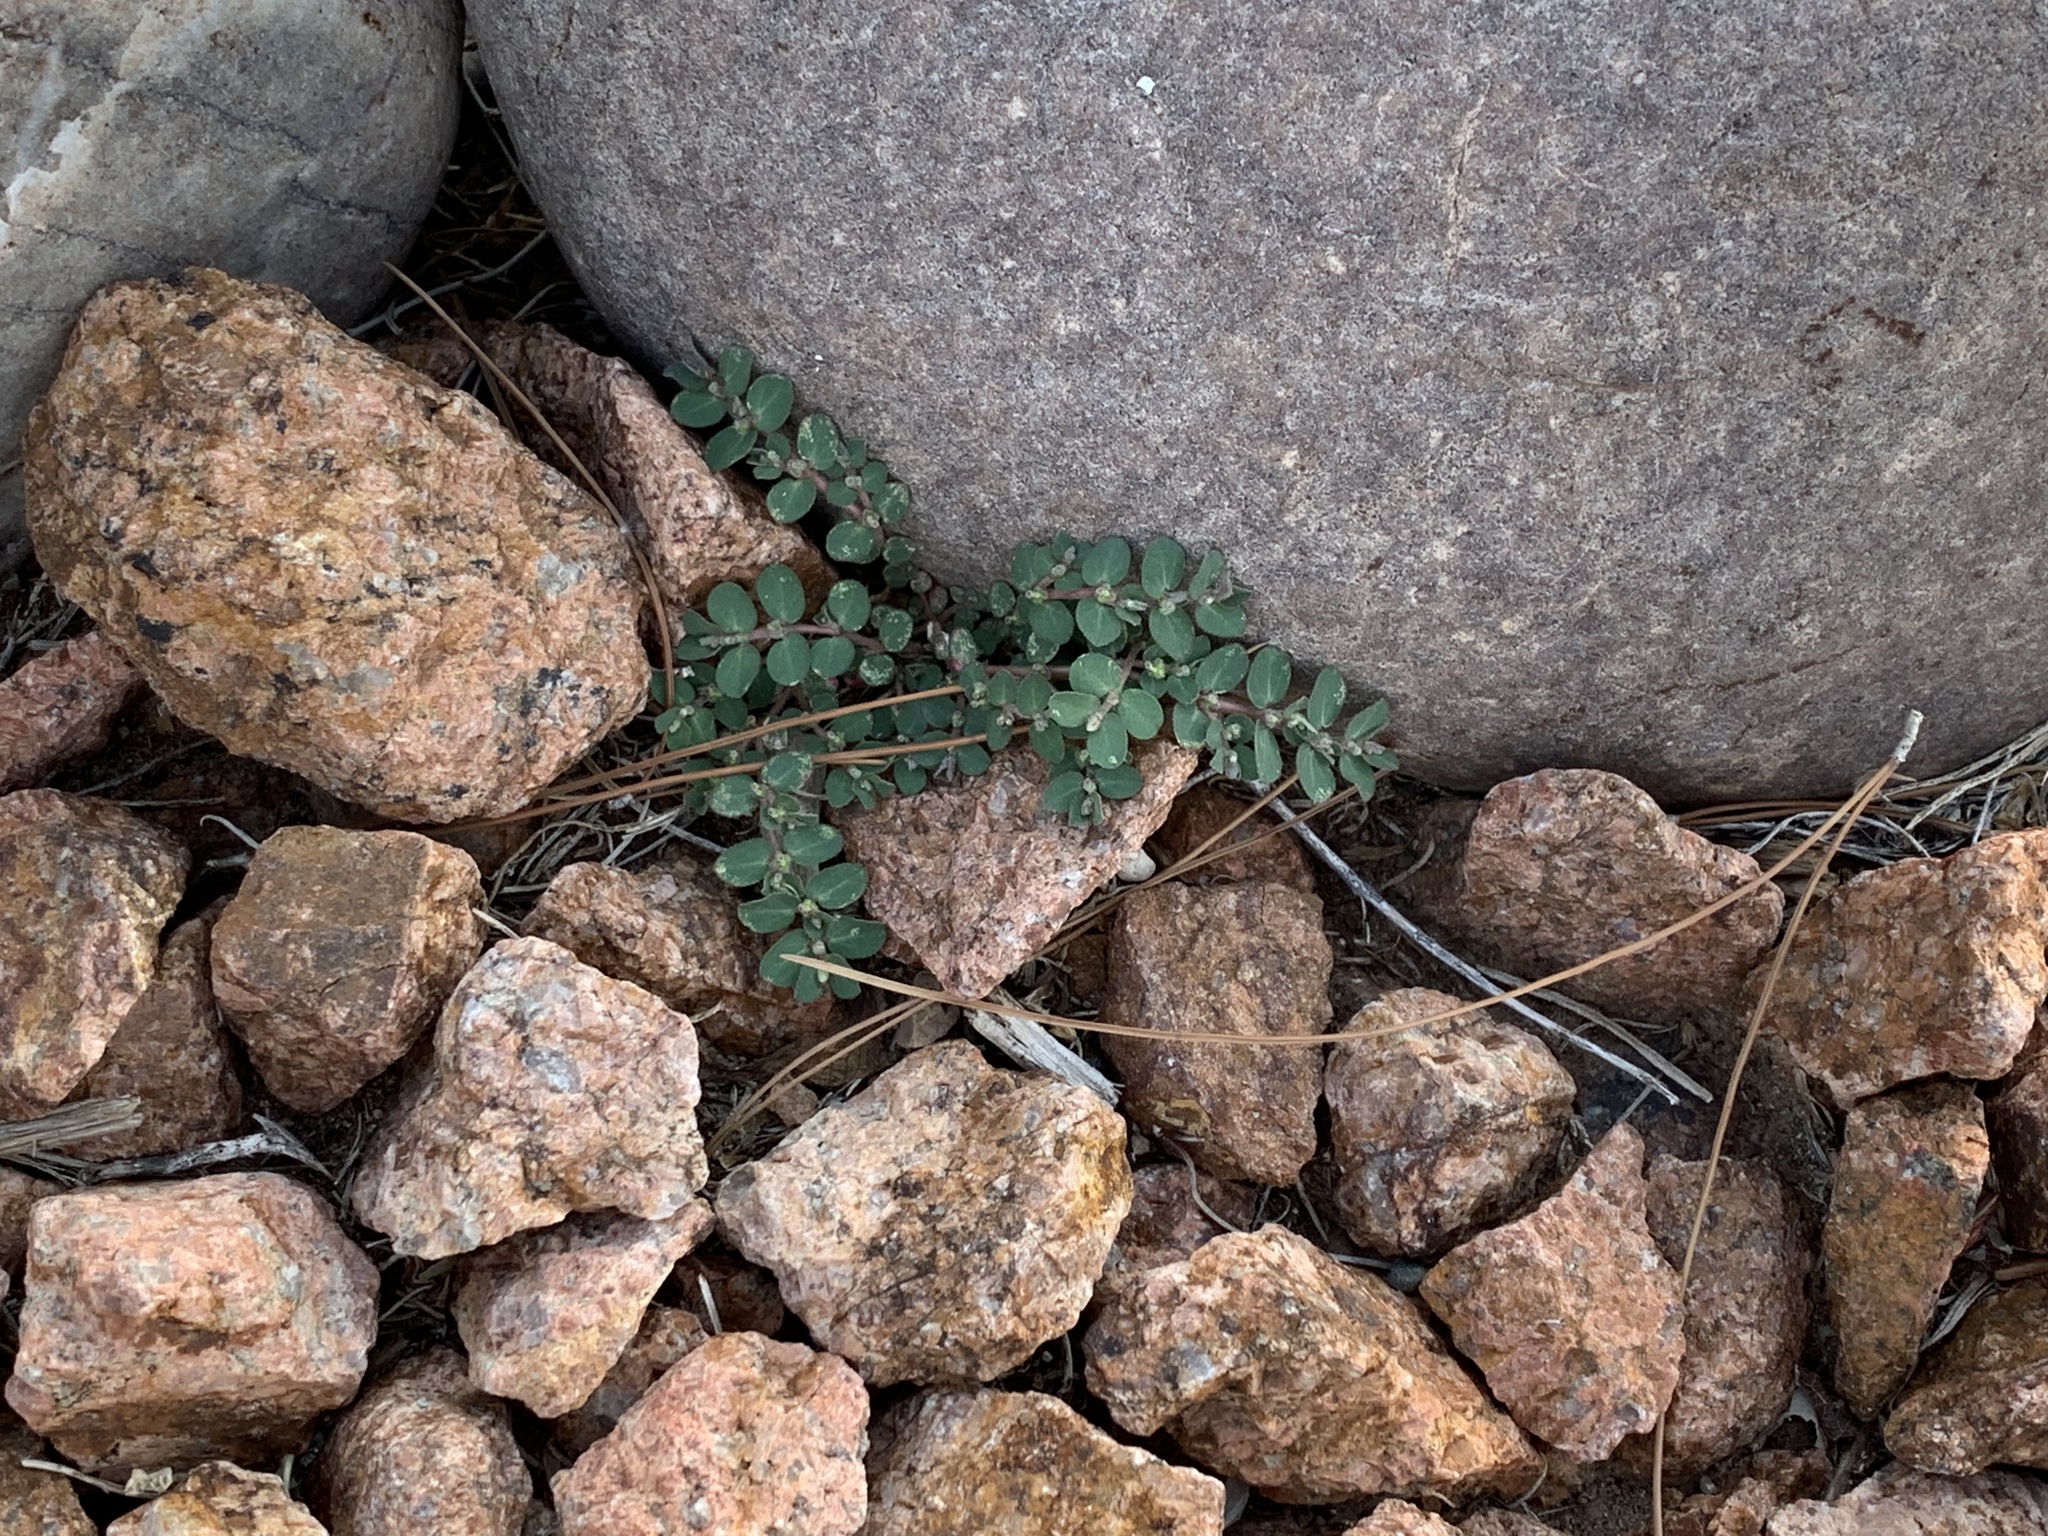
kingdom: Plantae
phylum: Tracheophyta
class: Magnoliopsida
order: Malpighiales
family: Euphorbiaceae
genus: Euphorbia
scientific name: Euphorbia prostrata
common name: Prostrate sandmat
